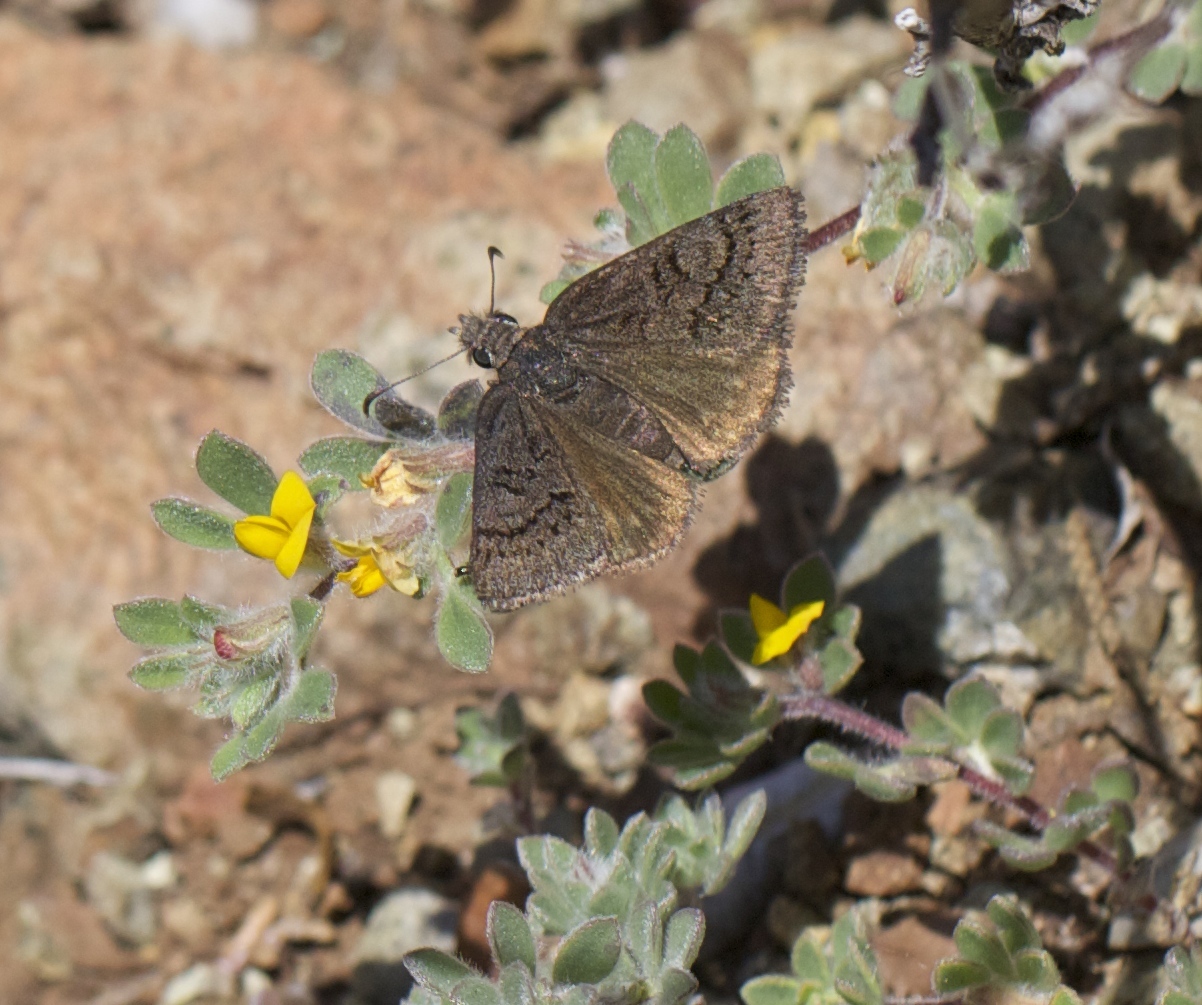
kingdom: Animalia
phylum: Arthropoda
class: Insecta
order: Lepidoptera
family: Hesperiidae
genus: Erynnis
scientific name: Erynnis brizo
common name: Sleepy duskywing
